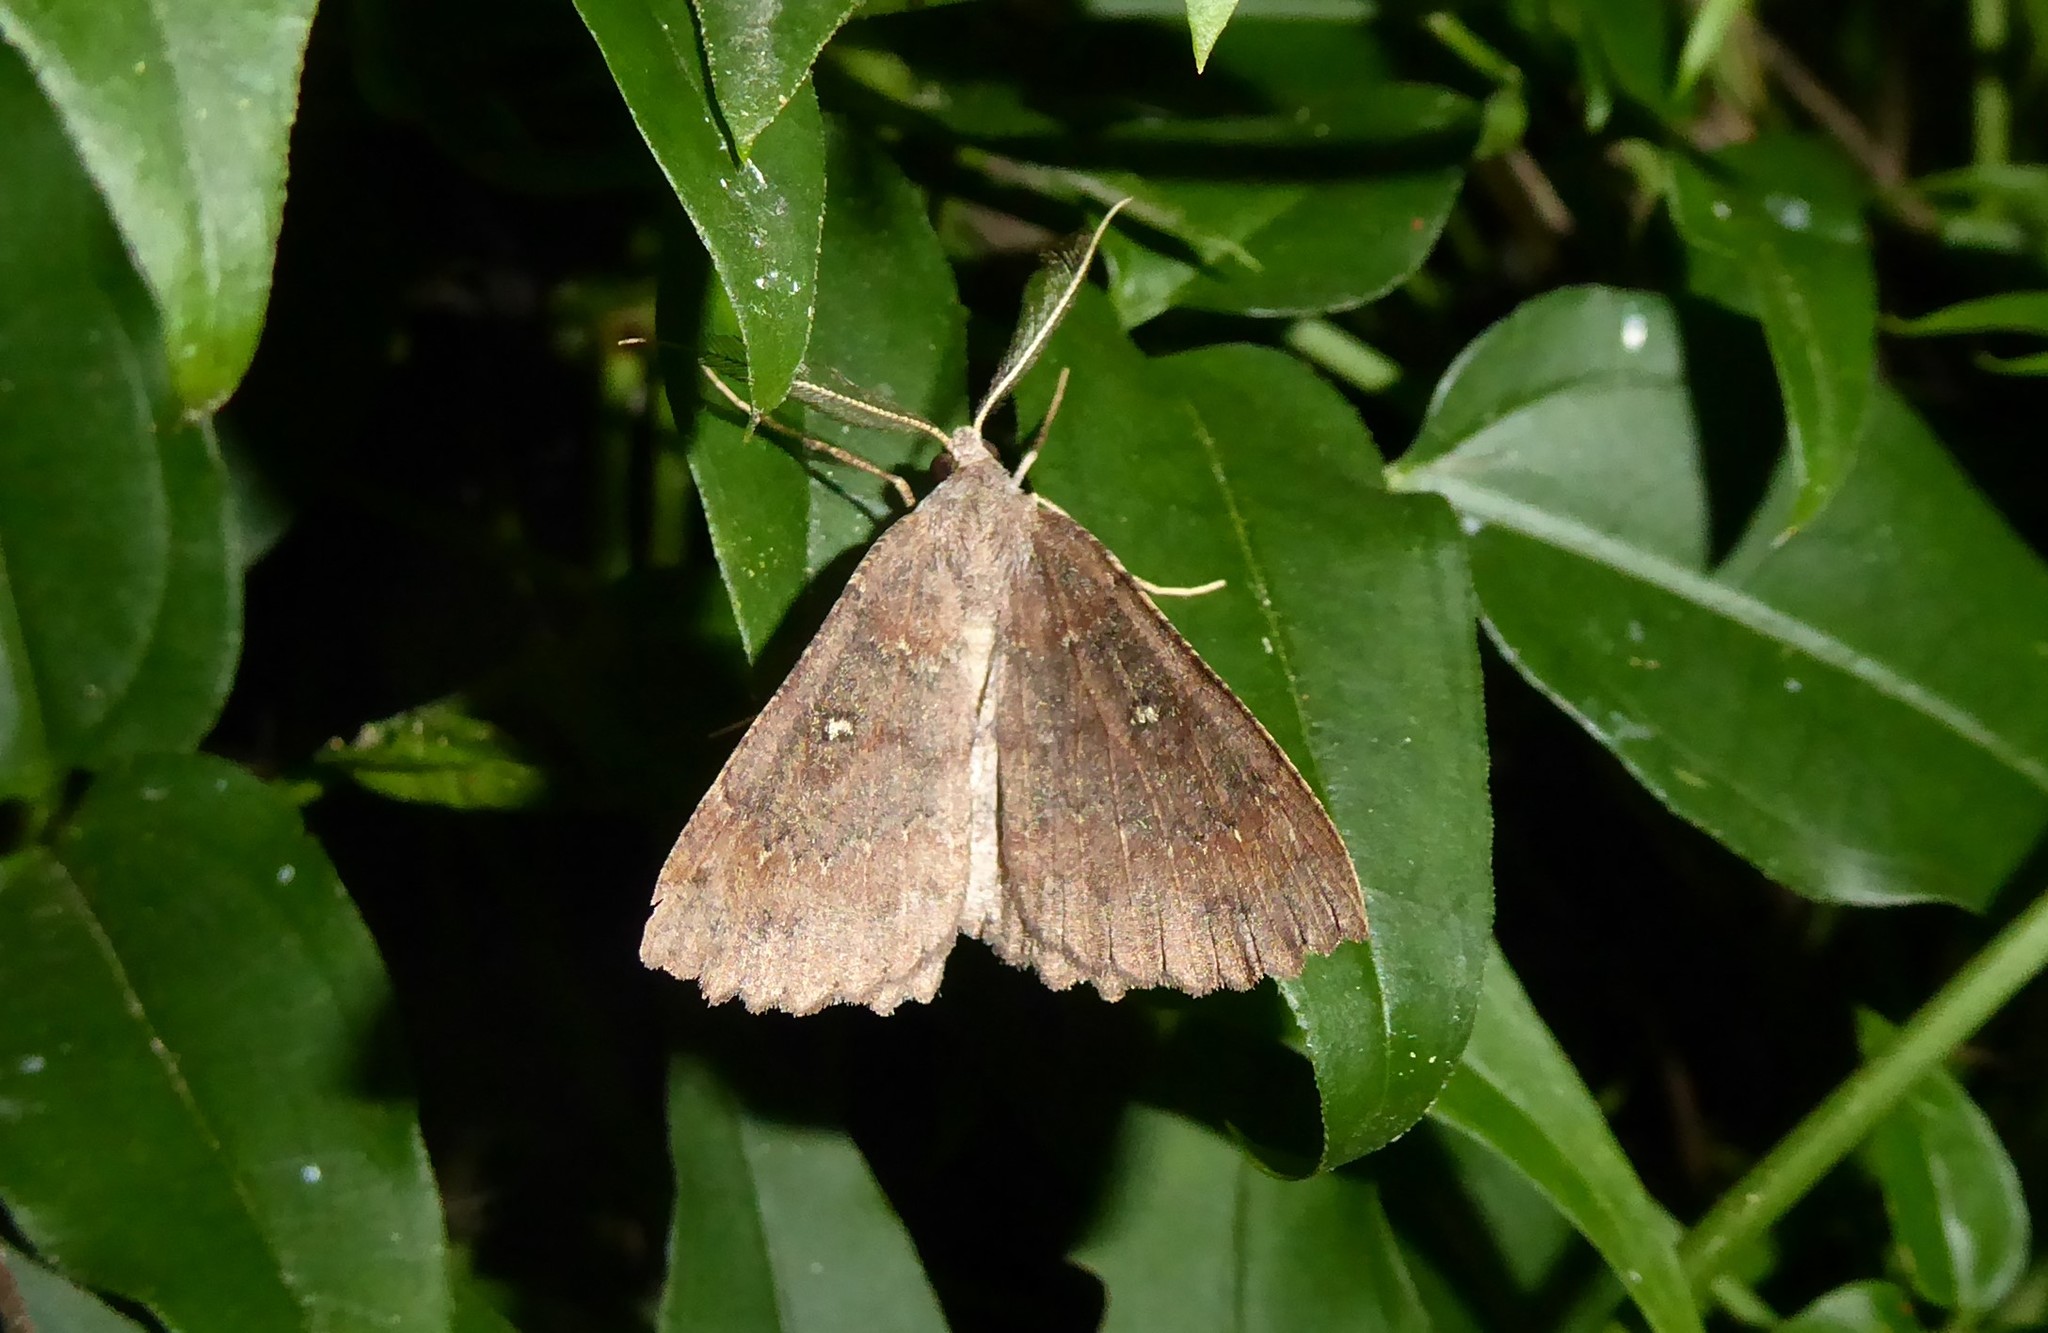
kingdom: Animalia
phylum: Arthropoda
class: Insecta
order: Lepidoptera
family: Geometridae
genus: Cleora
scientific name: Cleora scriptaria
